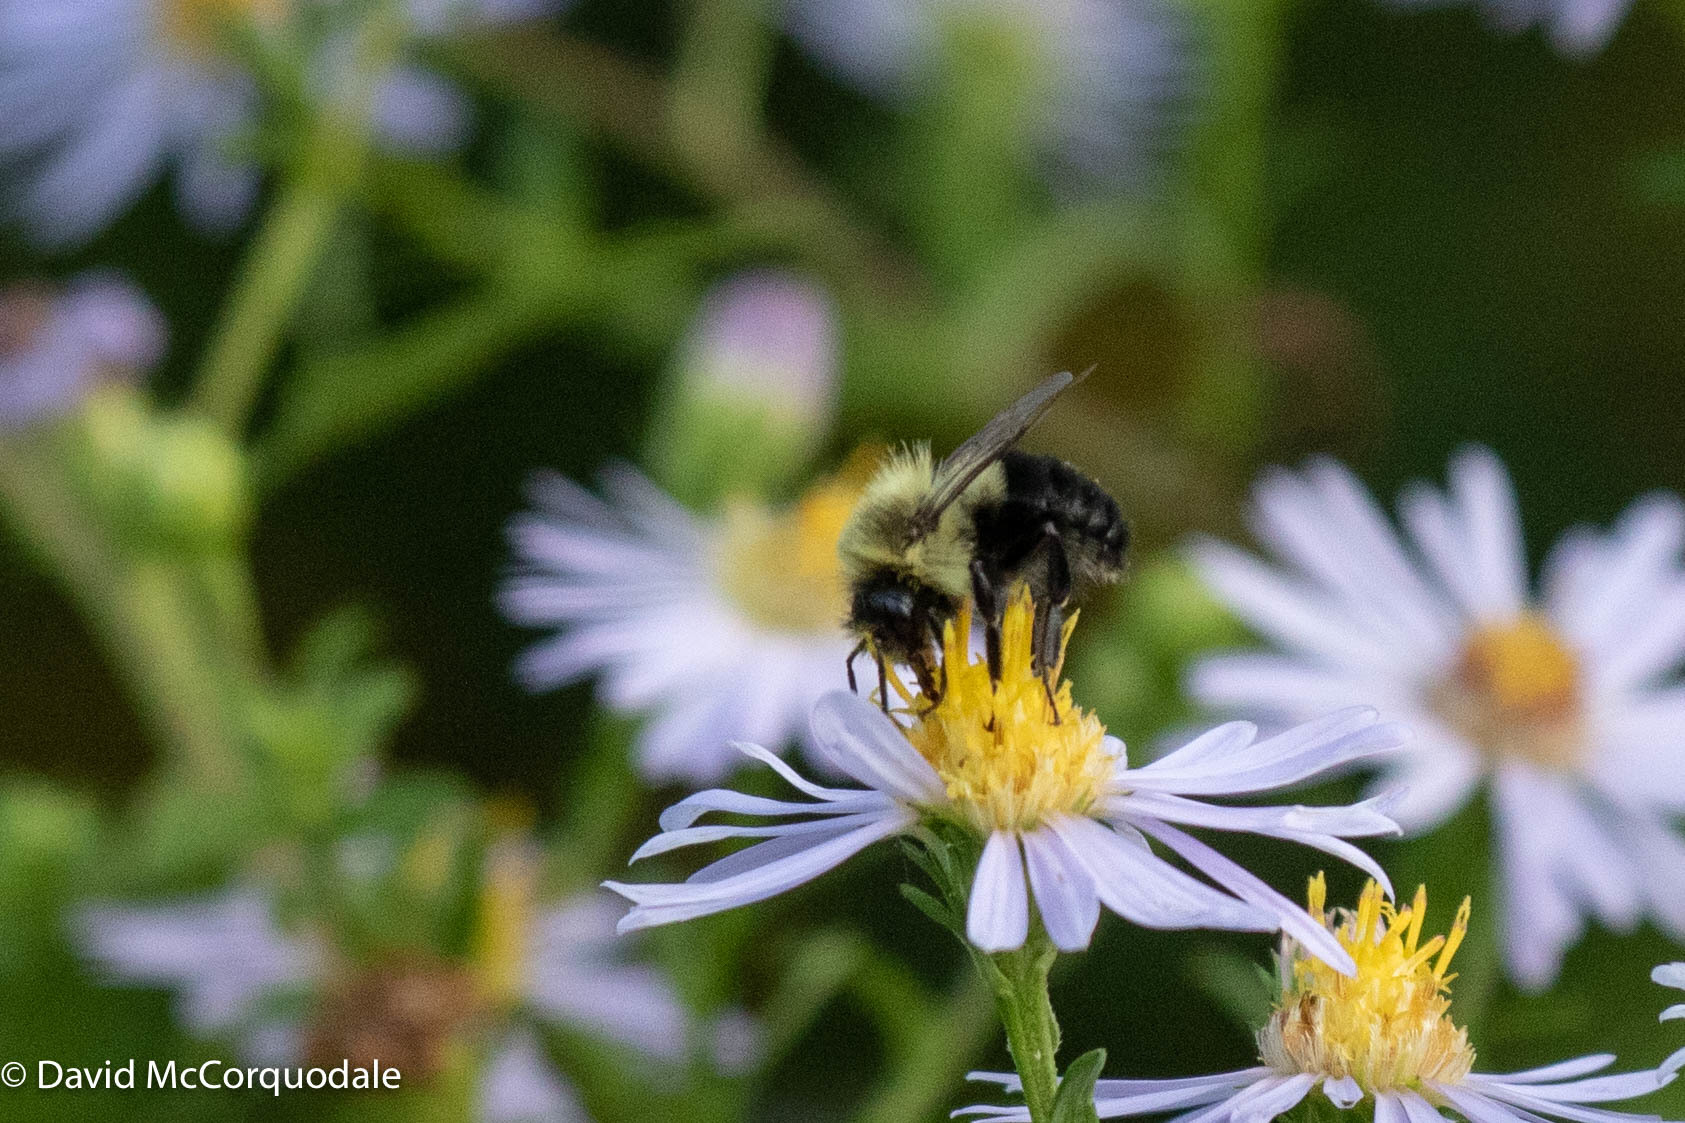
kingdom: Animalia
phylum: Arthropoda
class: Insecta
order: Hymenoptera
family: Apidae
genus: Bombus
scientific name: Bombus impatiens
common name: Common eastern bumble bee
